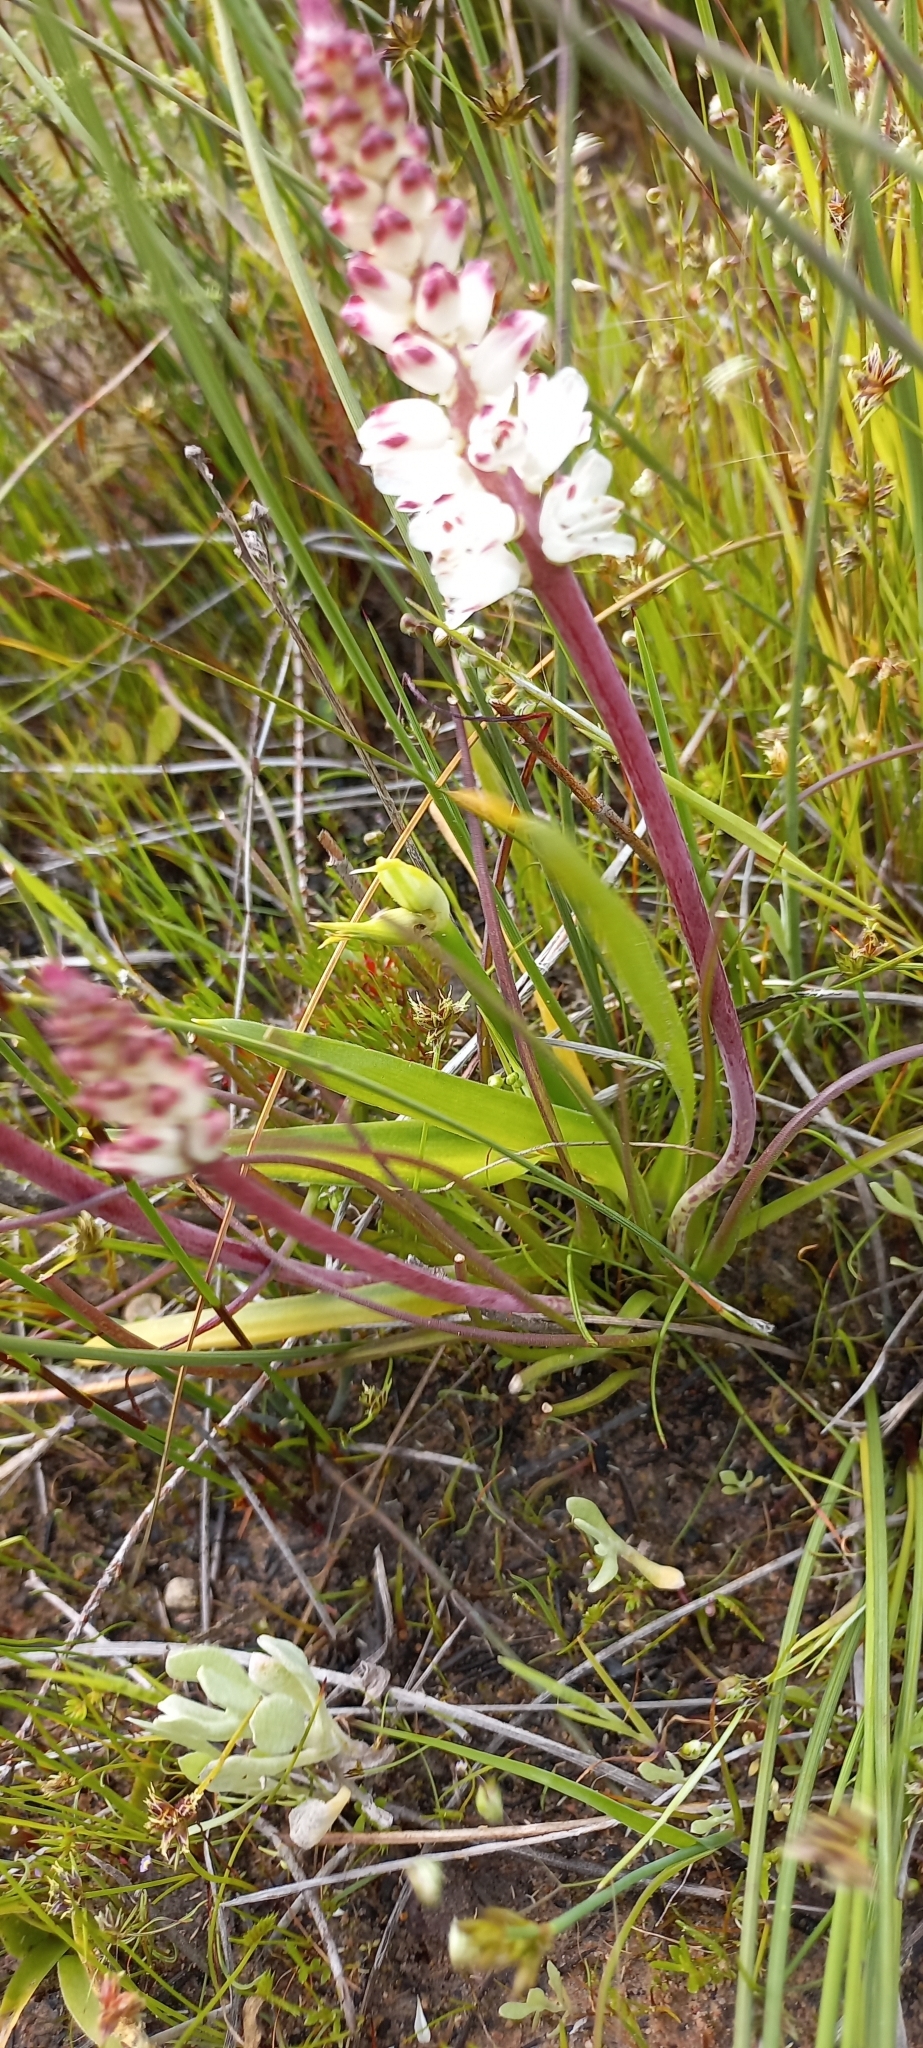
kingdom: Plantae
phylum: Tracheophyta
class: Liliopsida
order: Asparagales
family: Asparagaceae
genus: Lachenalia
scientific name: Lachenalia contaminata
